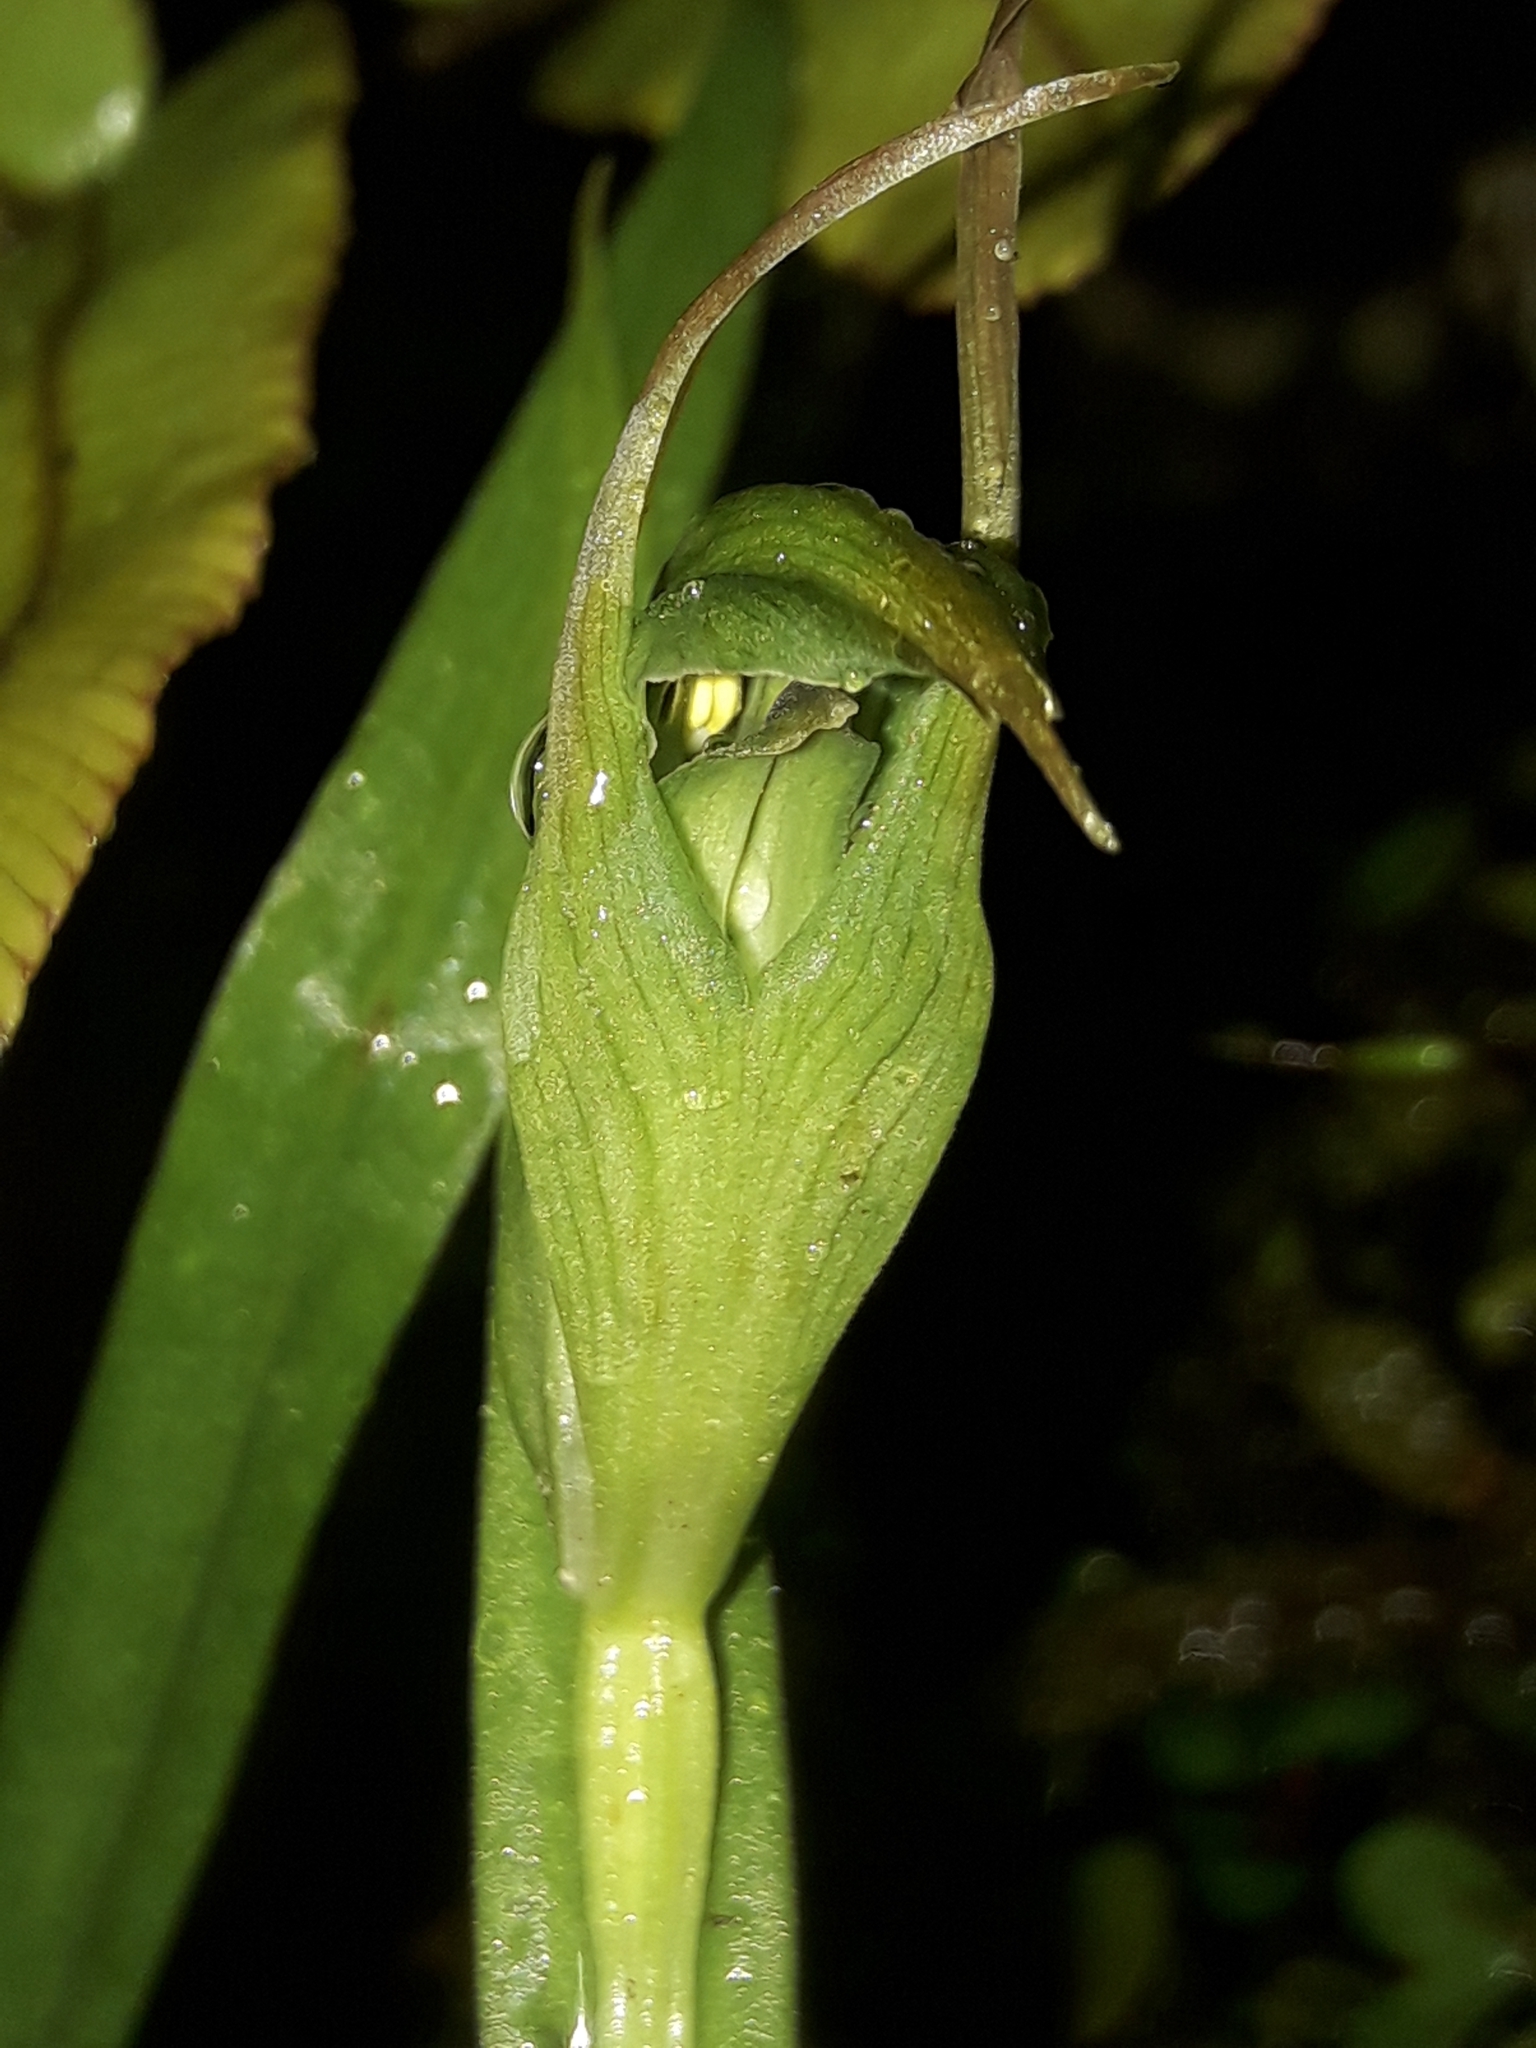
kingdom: Plantae
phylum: Tracheophyta
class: Liliopsida
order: Asparagales
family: Orchidaceae
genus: Pterostylis
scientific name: Pterostylis montana
